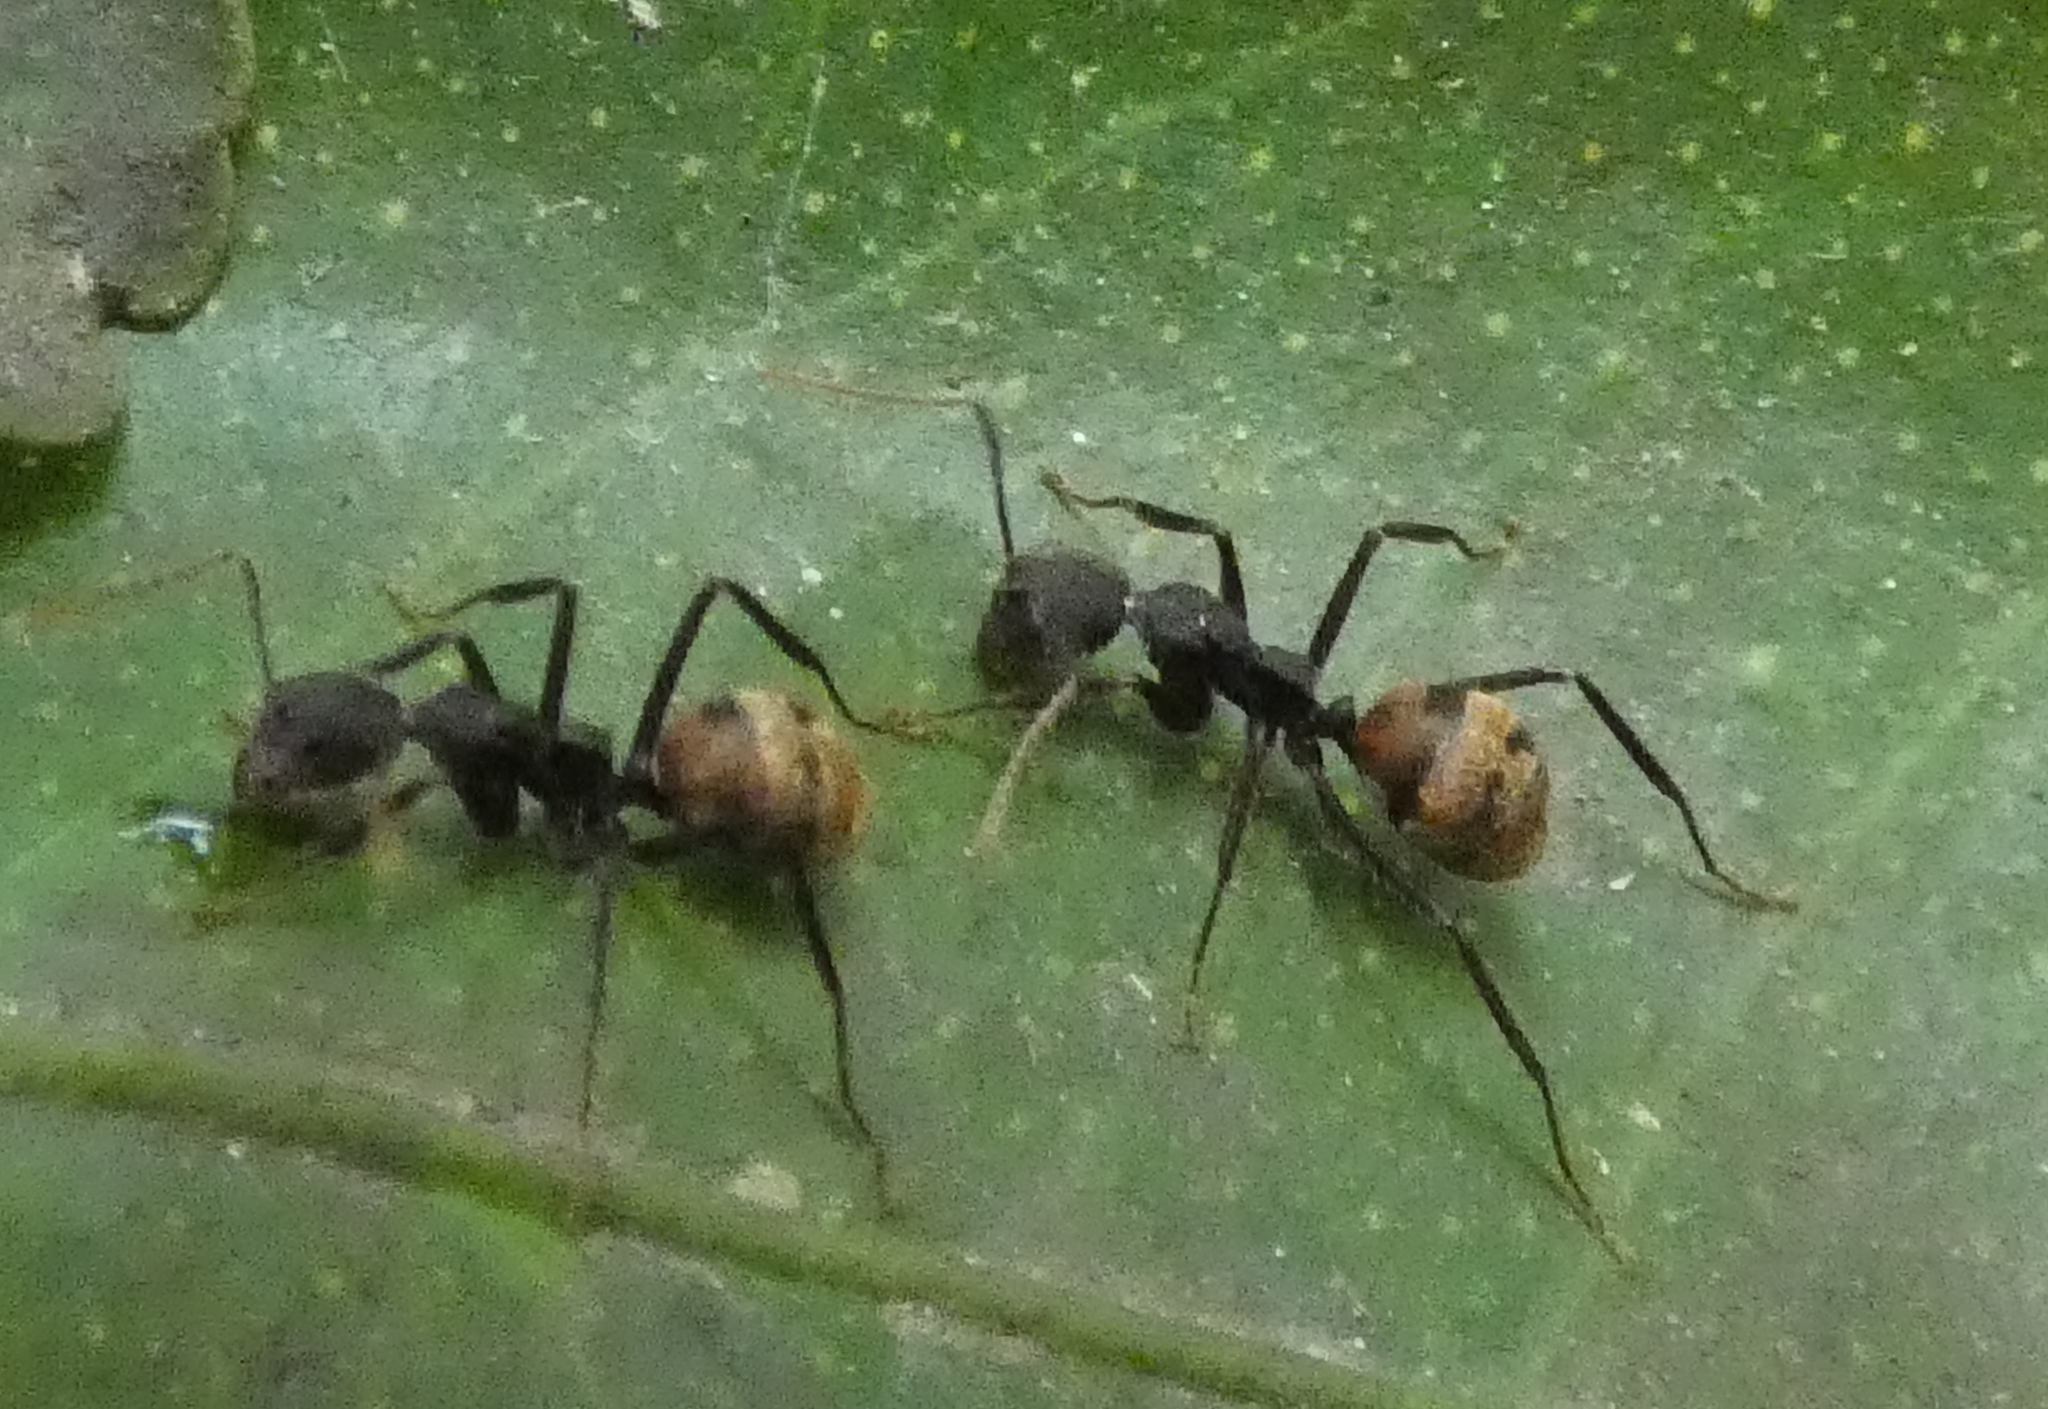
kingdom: Animalia
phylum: Arthropoda
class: Insecta
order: Hymenoptera
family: Formicidae
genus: Dolichoderus
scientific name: Dolichoderus bidens
